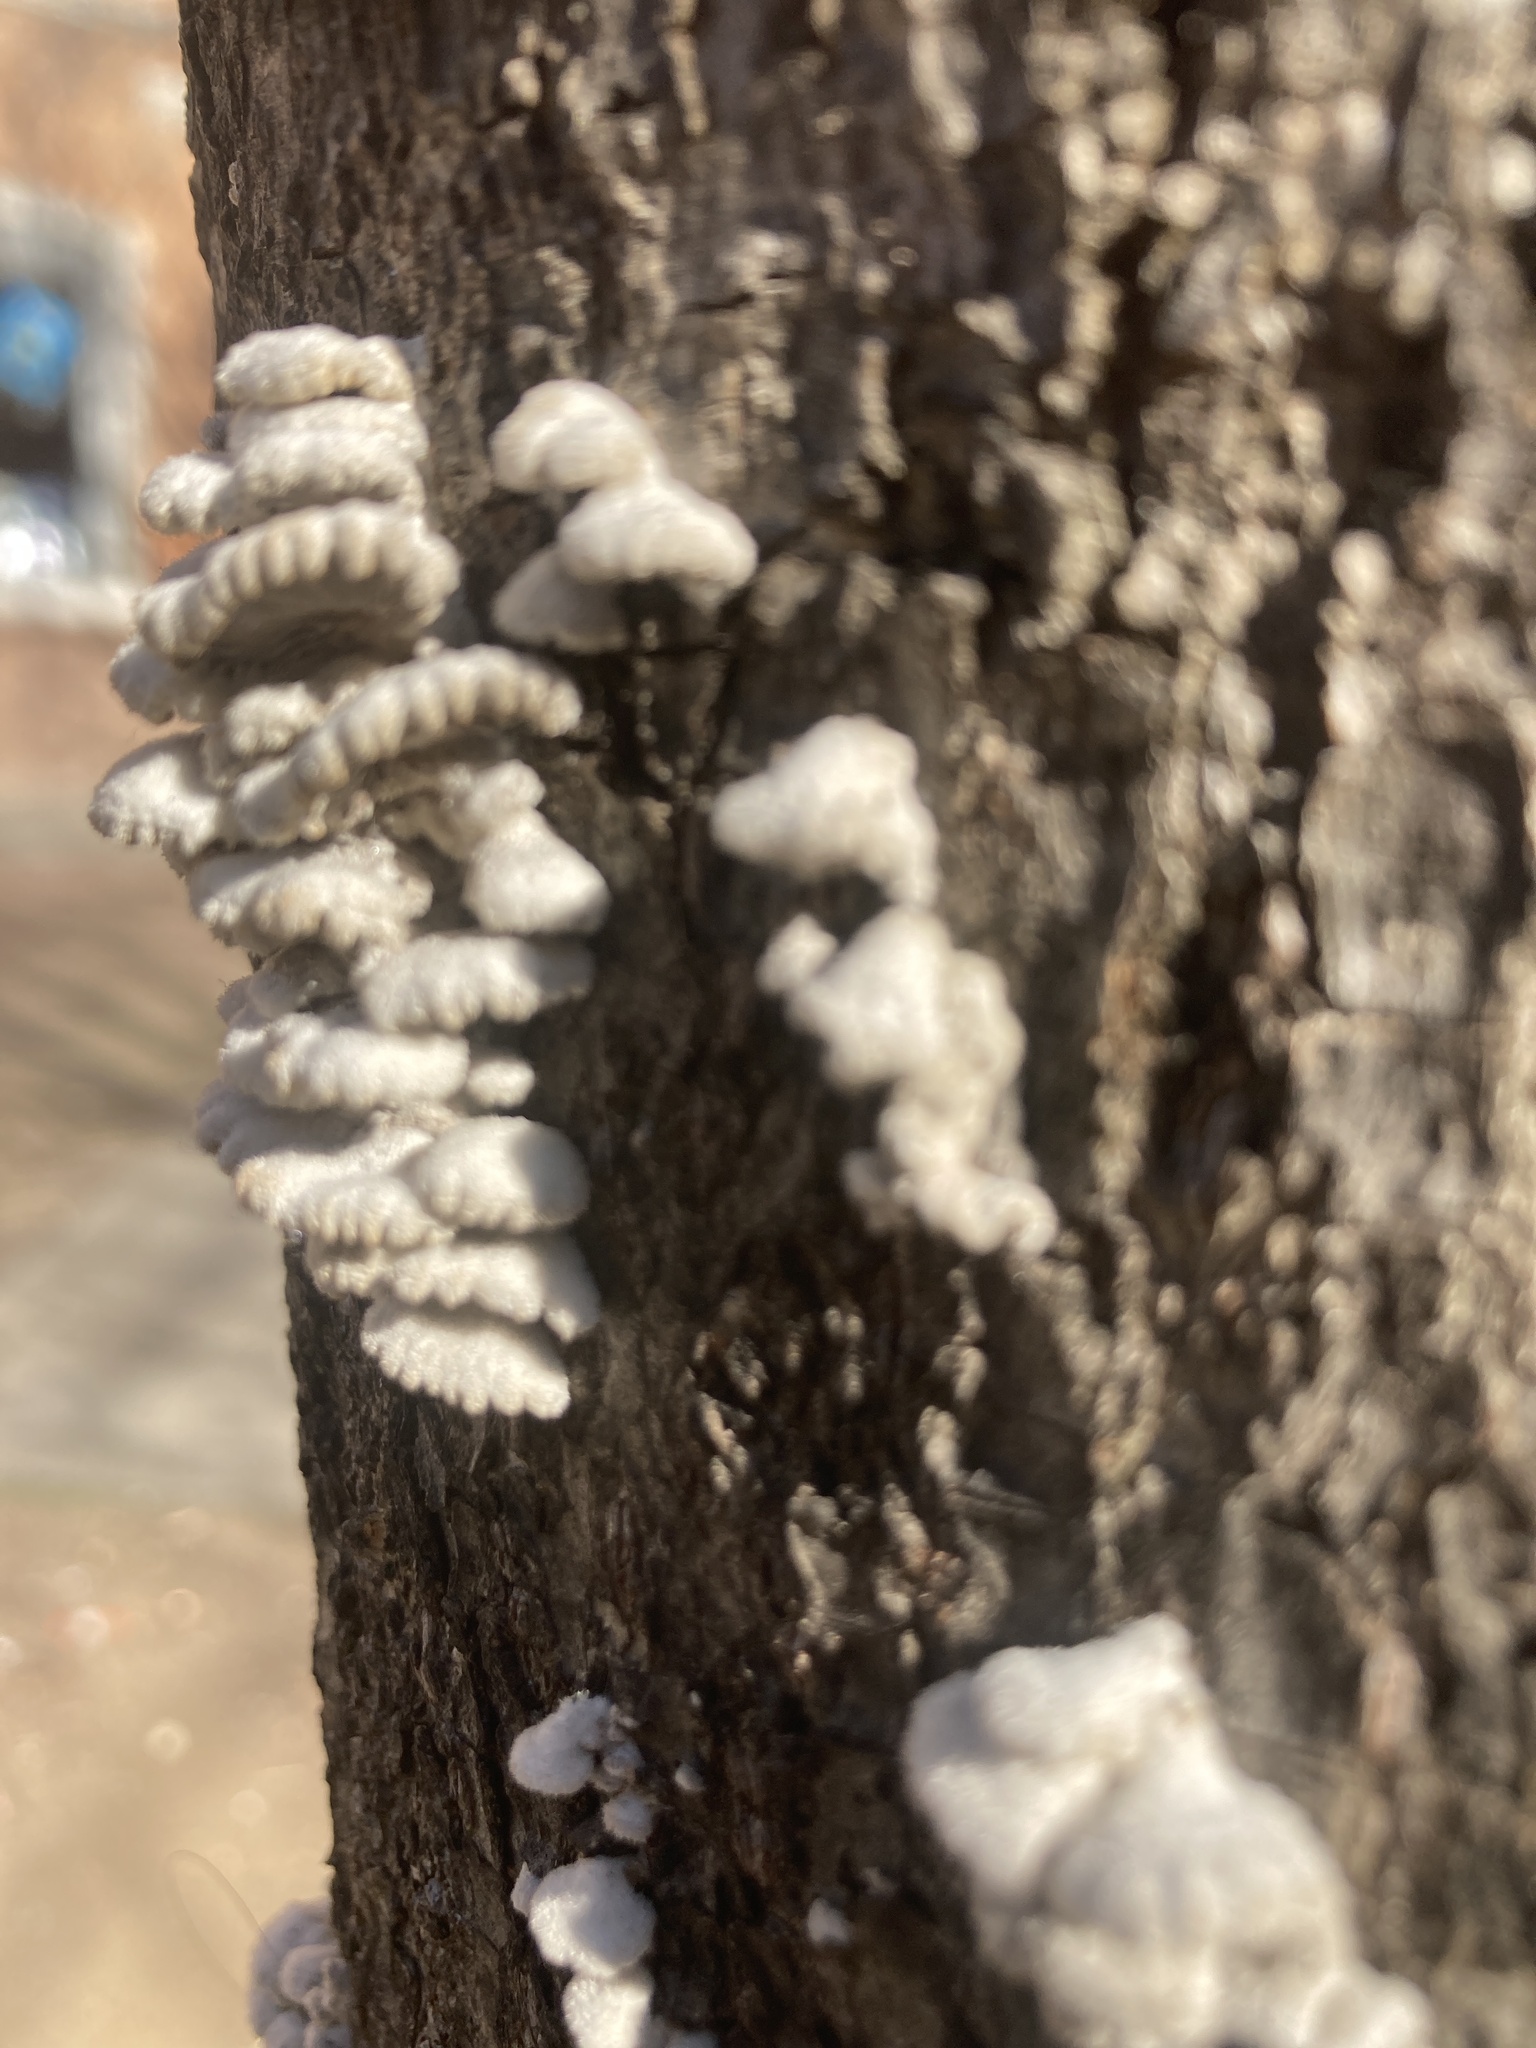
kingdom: Fungi
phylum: Basidiomycota
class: Agaricomycetes
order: Agaricales
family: Schizophyllaceae
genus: Schizophyllum
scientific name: Schizophyllum commune
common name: Common porecrust
